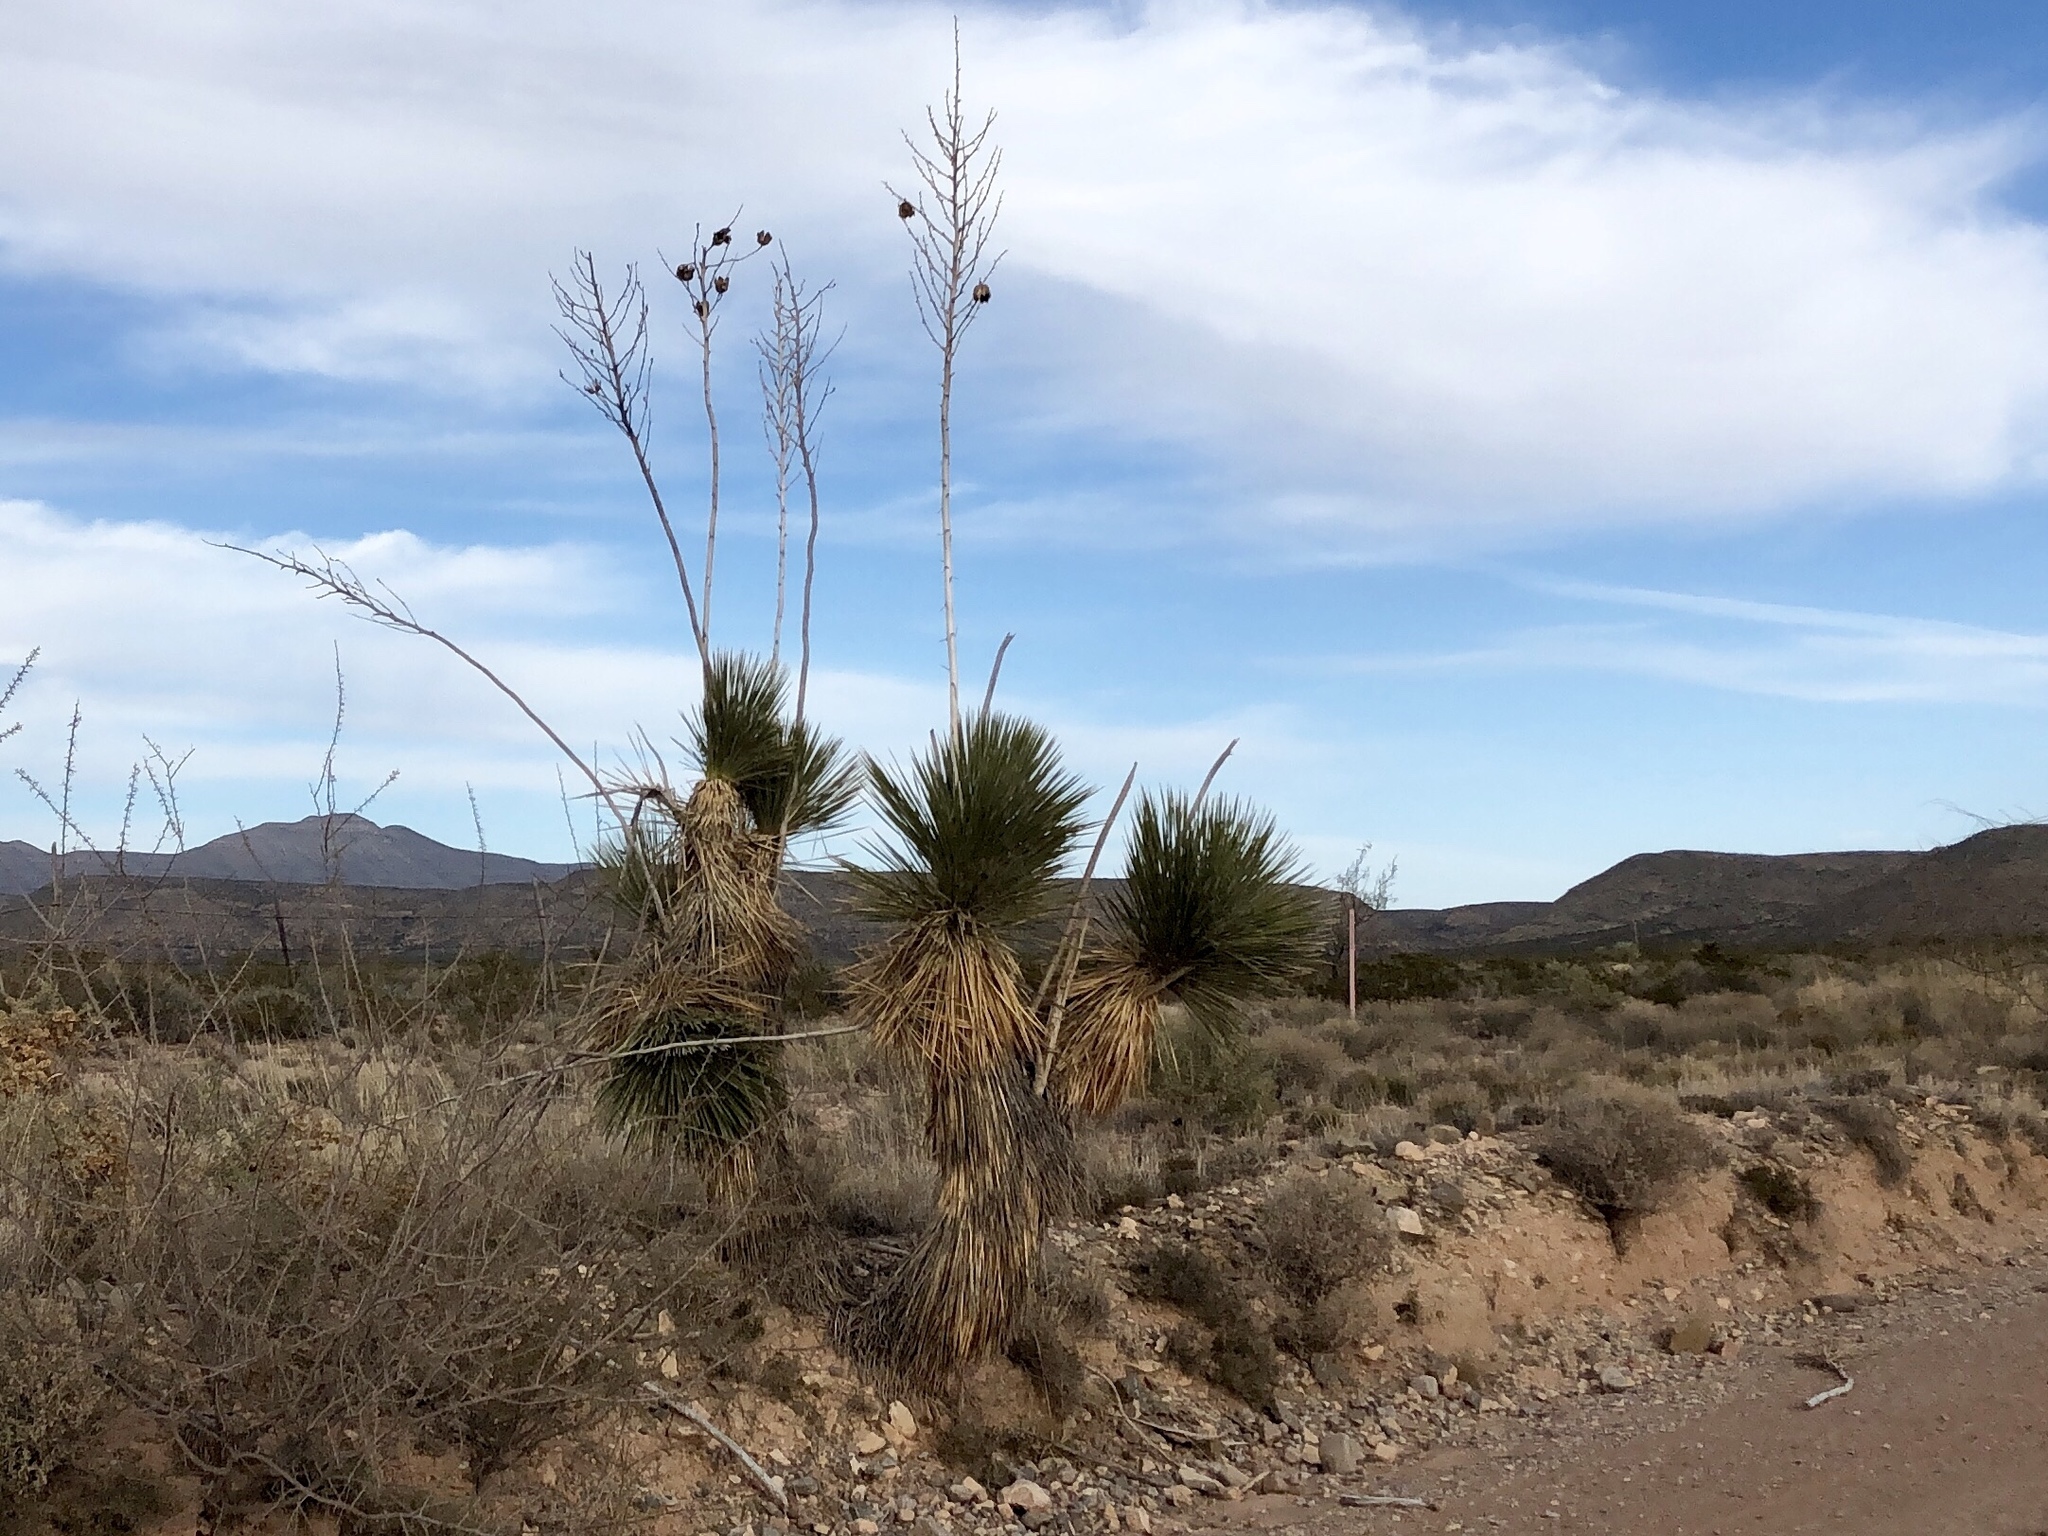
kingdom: Plantae
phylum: Tracheophyta
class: Liliopsida
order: Asparagales
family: Asparagaceae
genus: Yucca
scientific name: Yucca elata
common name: Palmella
